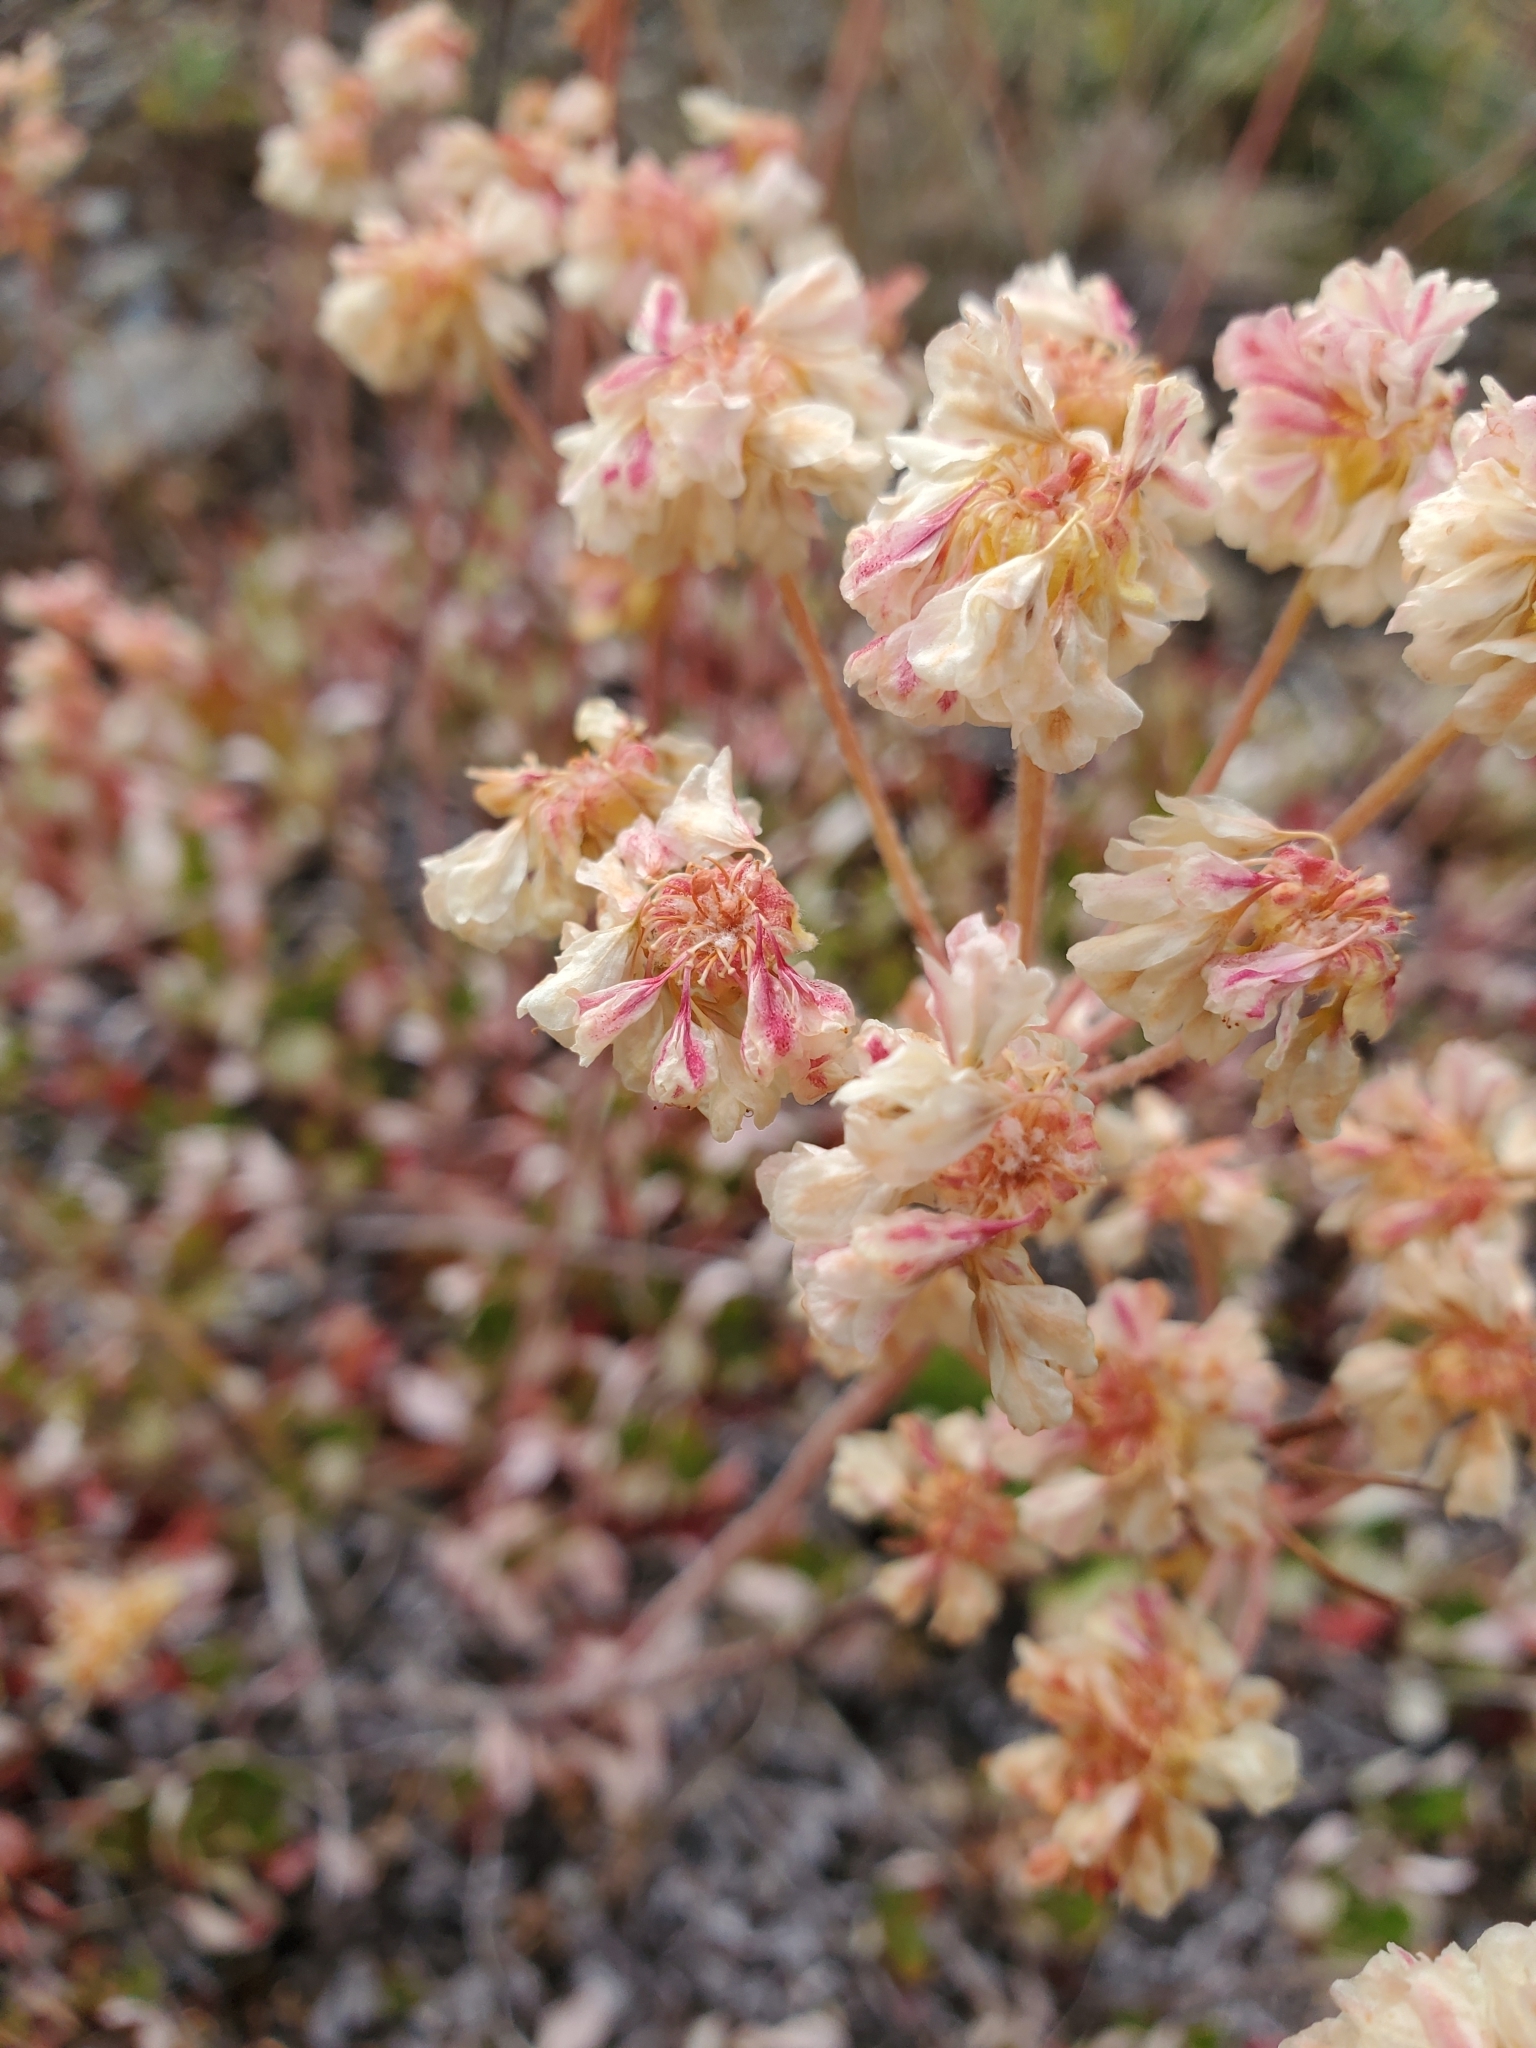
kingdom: Plantae
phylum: Tracheophyta
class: Magnoliopsida
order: Caryophyllales
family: Polygonaceae
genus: Eriogonum
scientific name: Eriogonum umbellatum
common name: Sulfur-buckwheat
